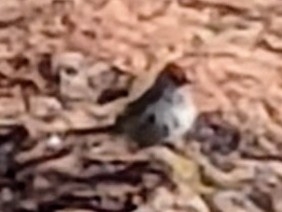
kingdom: Animalia
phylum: Chordata
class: Aves
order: Passeriformes
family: Passerellidae
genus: Pipilo
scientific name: Pipilo chlorurus
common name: Green-tailed towhee
